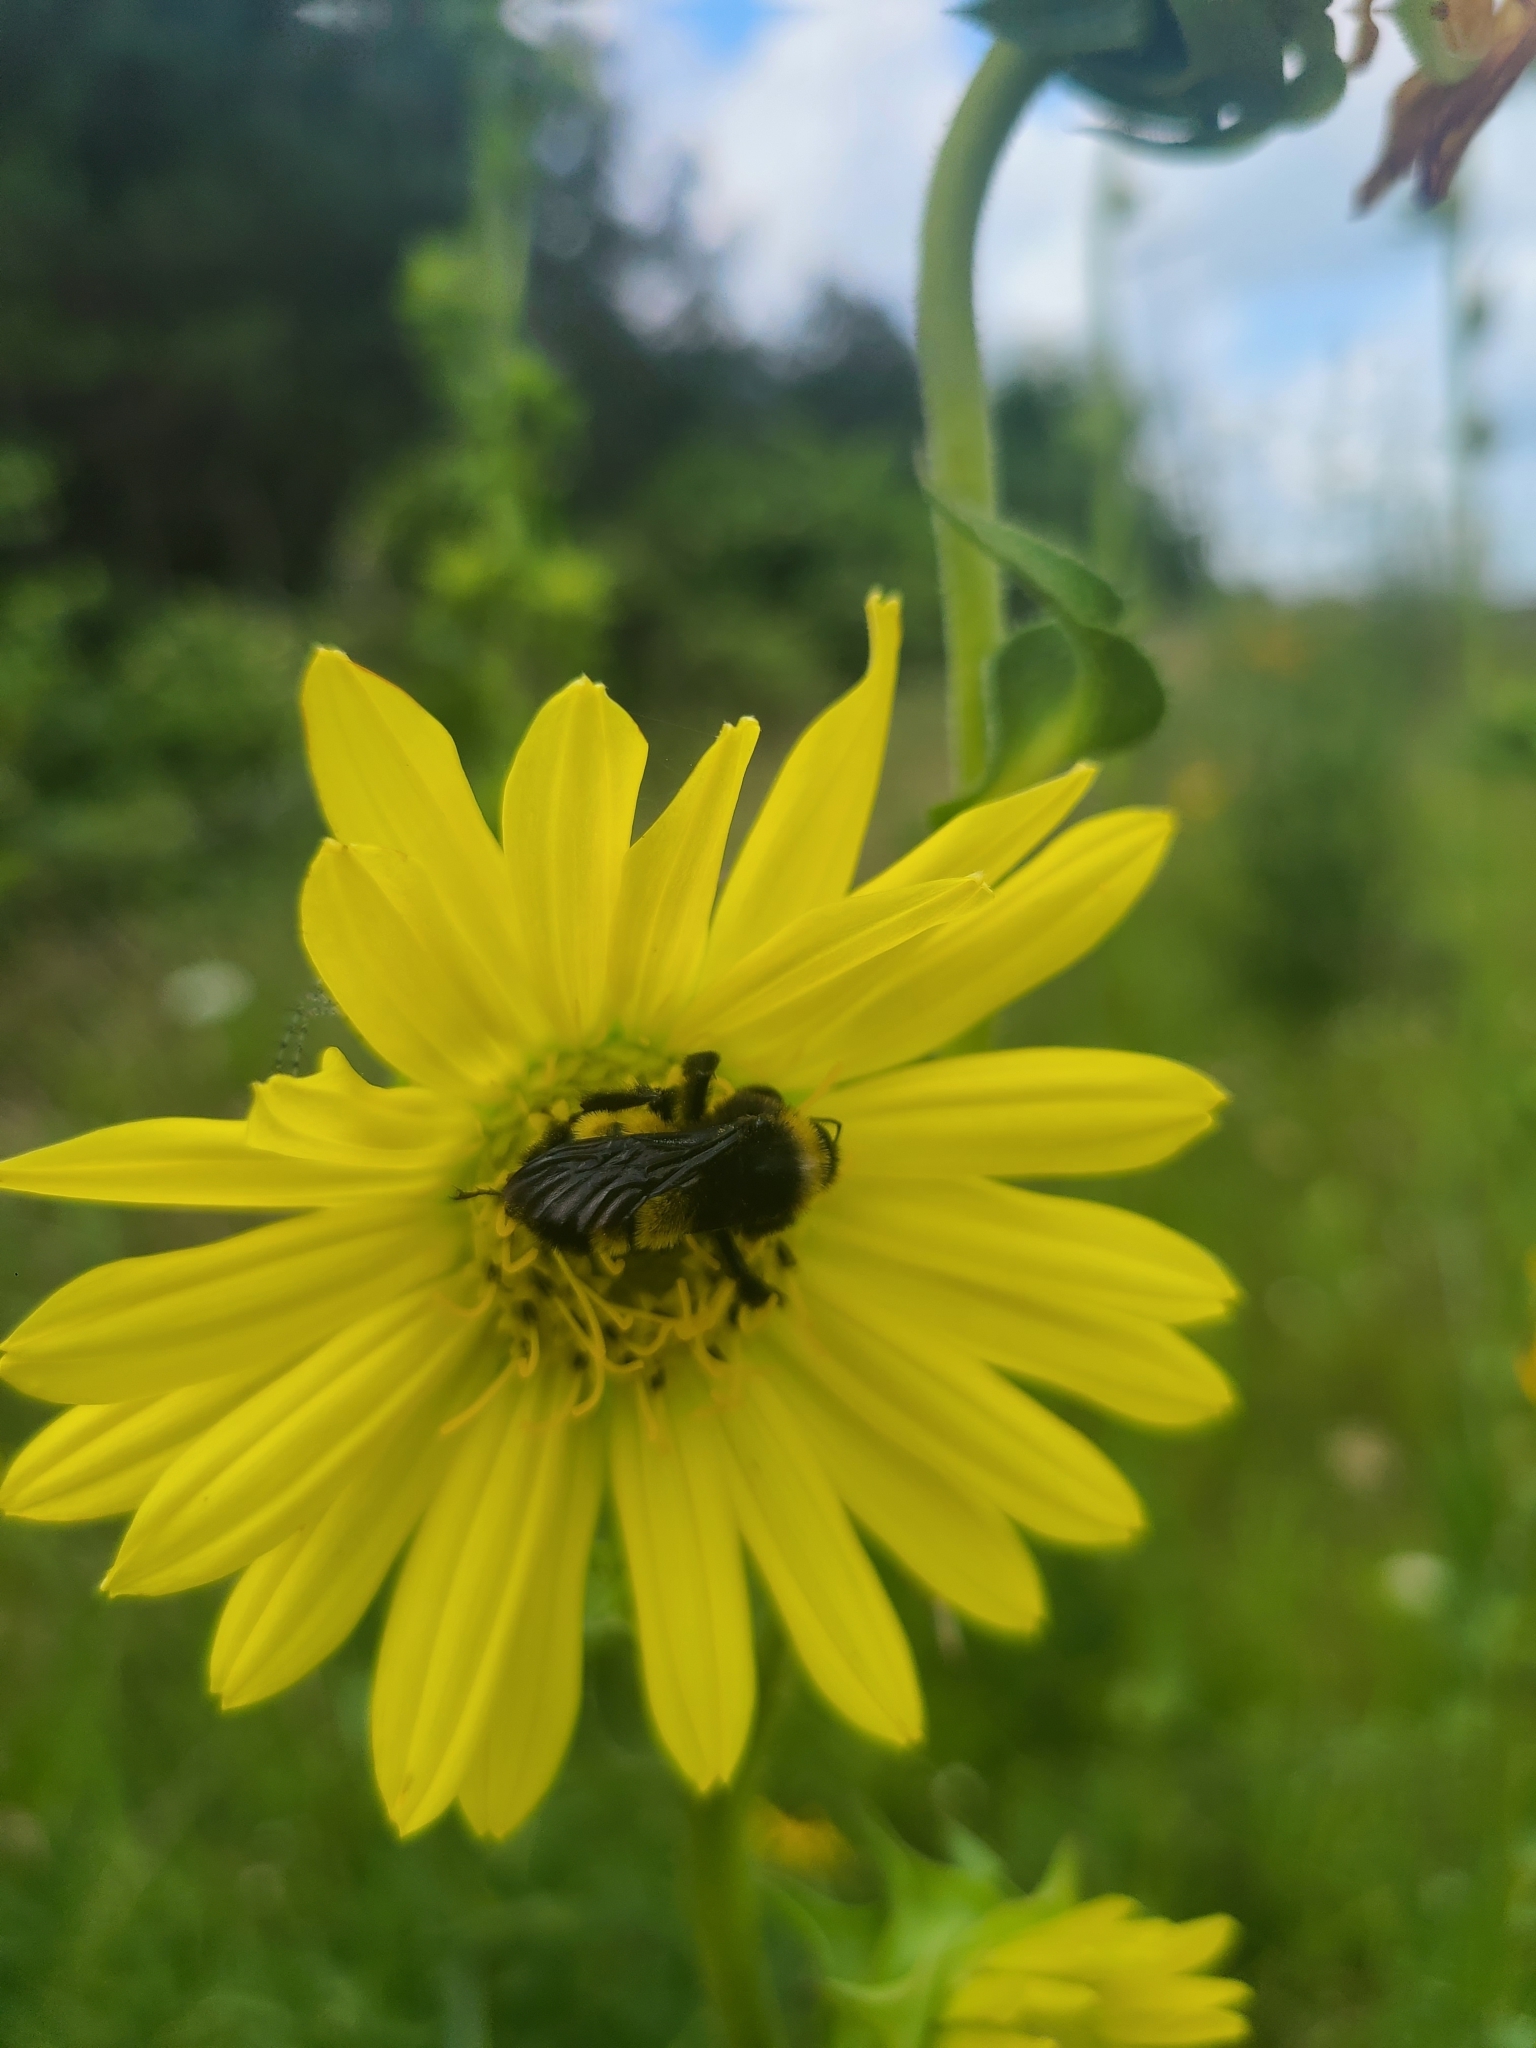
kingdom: Animalia
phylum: Arthropoda
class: Insecta
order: Hymenoptera
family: Apidae
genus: Bombus
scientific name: Bombus pensylvanicus
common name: Bumble bee
